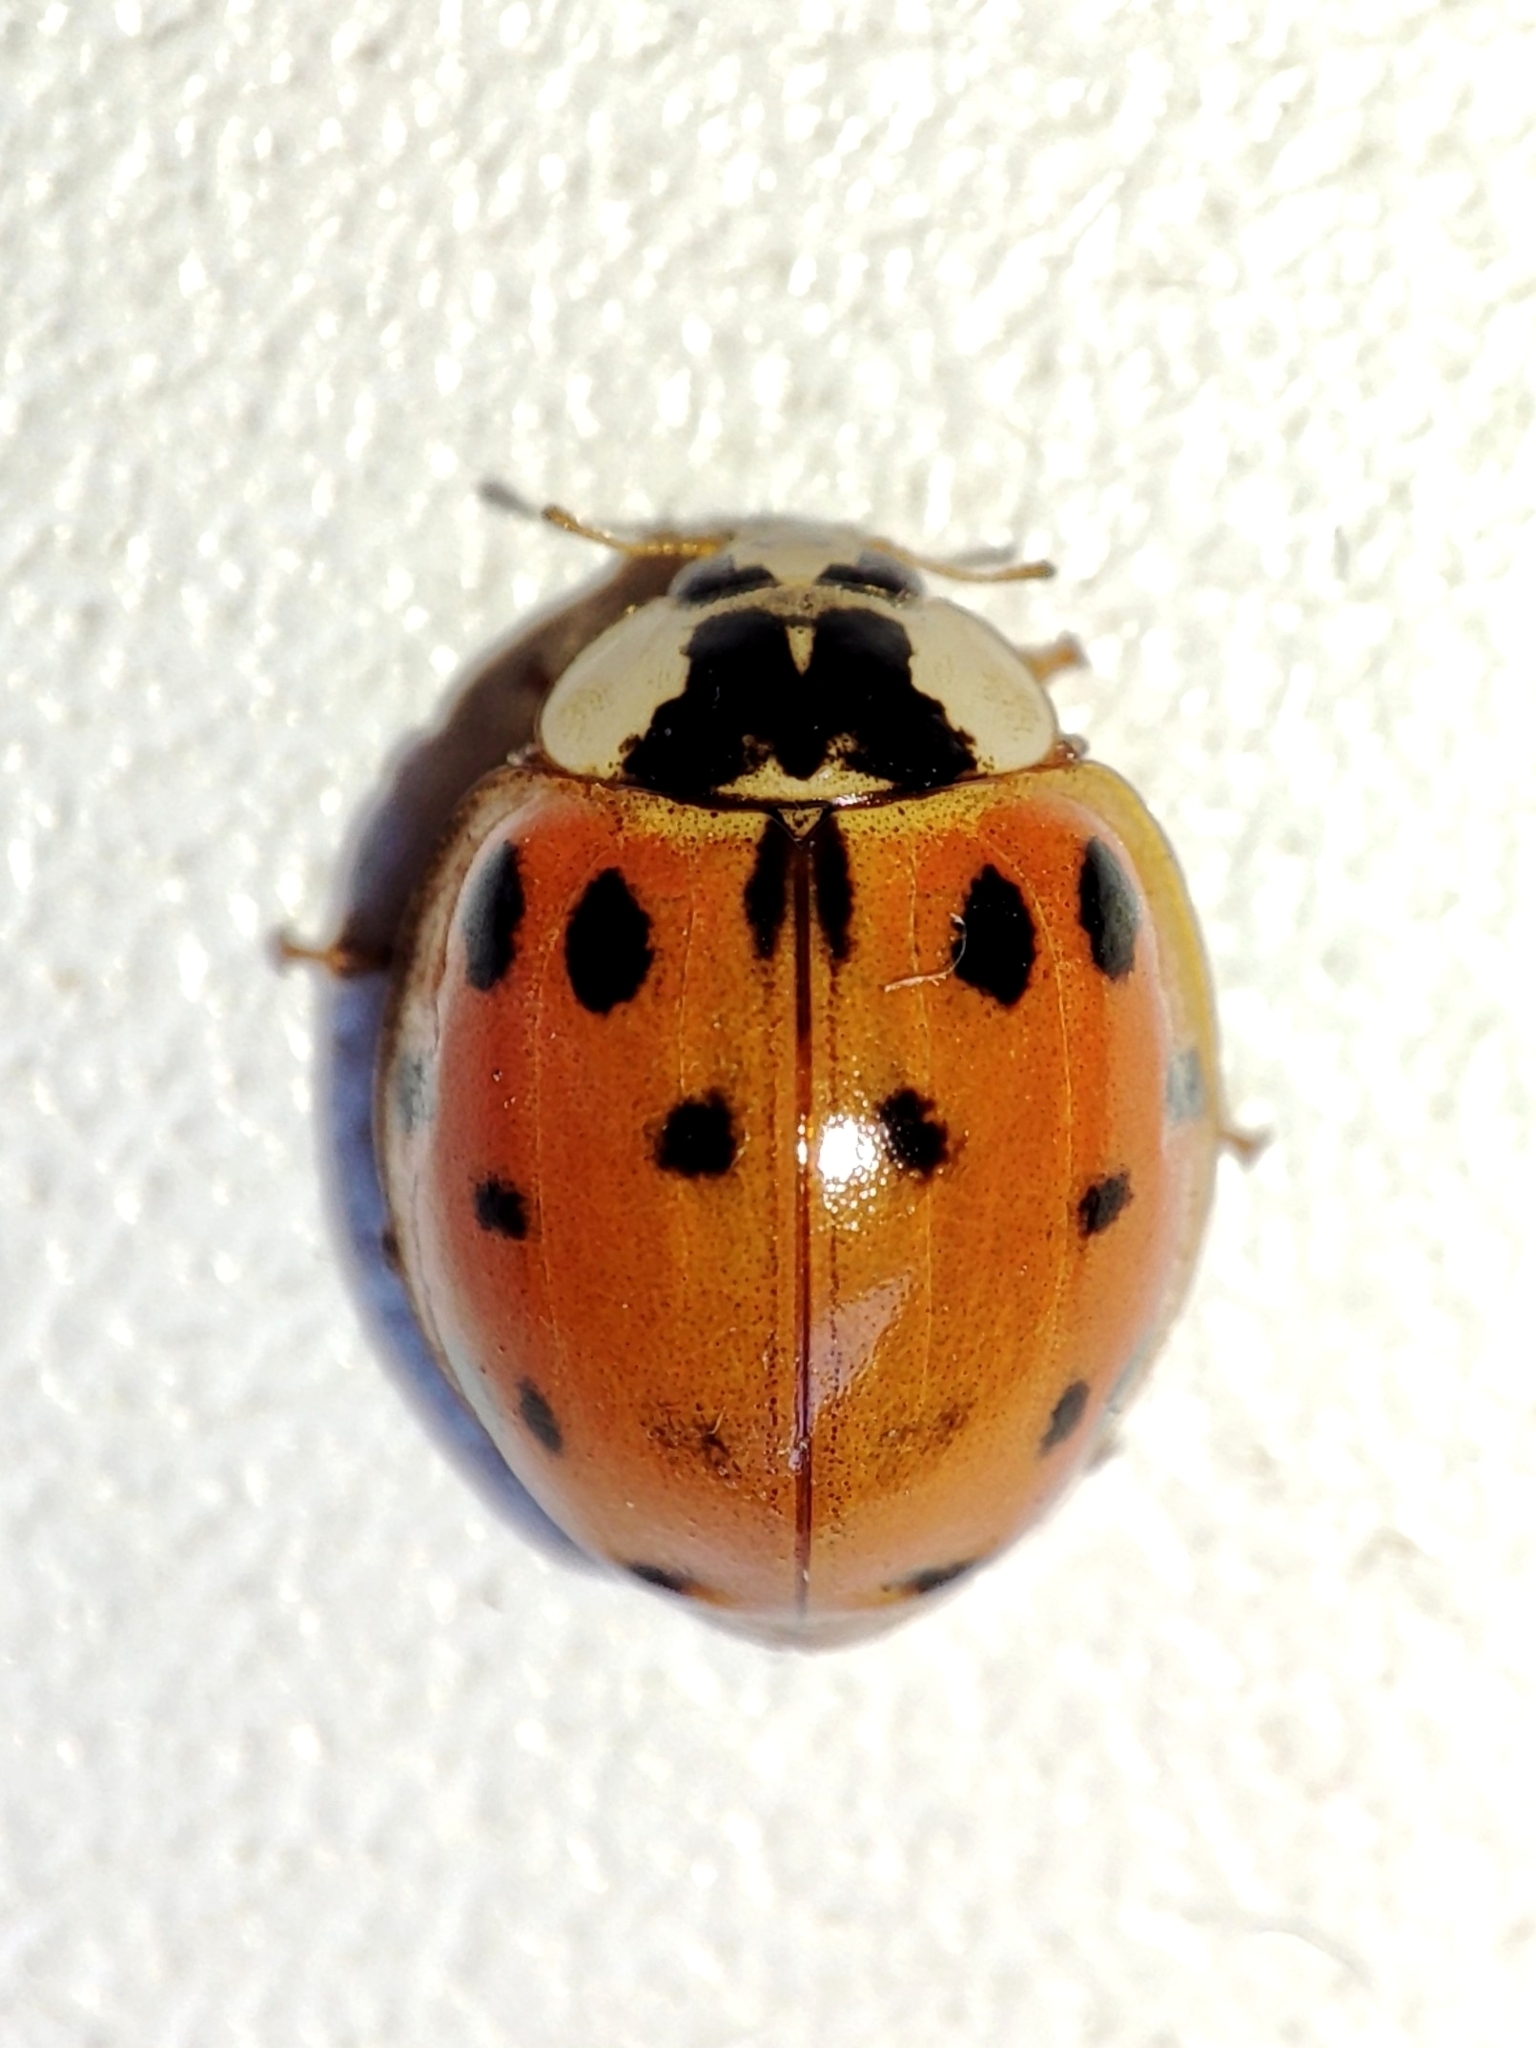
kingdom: Animalia
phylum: Arthropoda
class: Insecta
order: Coleoptera
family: Coccinellidae
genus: Harmonia
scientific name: Harmonia axyridis
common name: Harlequin ladybird
